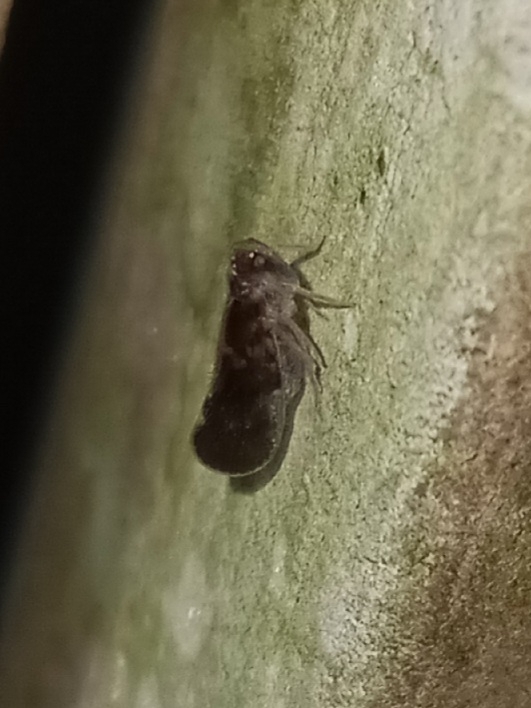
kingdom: Animalia
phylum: Arthropoda
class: Insecta
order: Hemiptera
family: Cixiidae
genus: Pintalia
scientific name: Pintalia vibex
